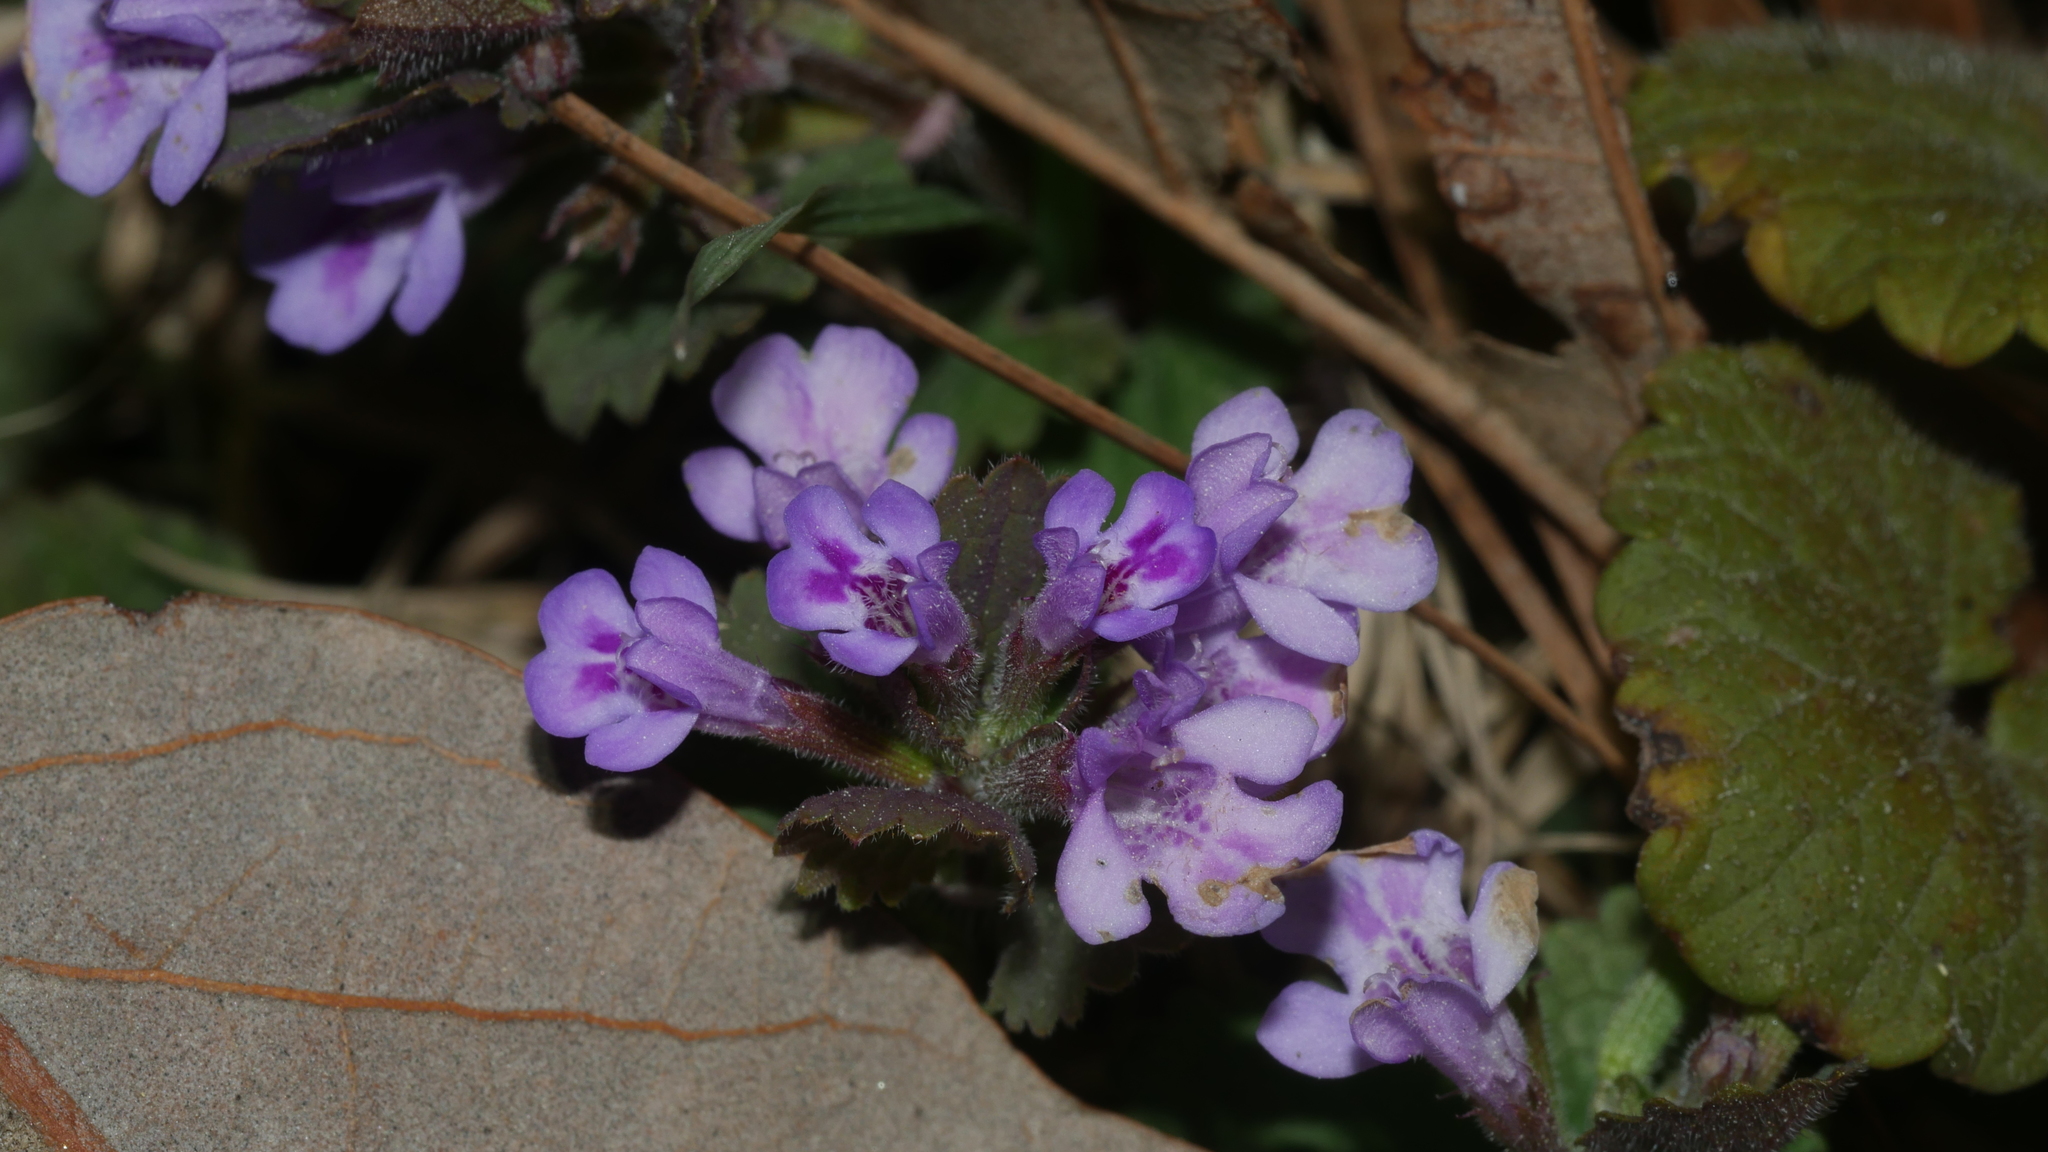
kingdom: Plantae
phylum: Tracheophyta
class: Magnoliopsida
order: Lamiales
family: Lamiaceae
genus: Glechoma
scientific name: Glechoma hederacea
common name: Ground ivy
